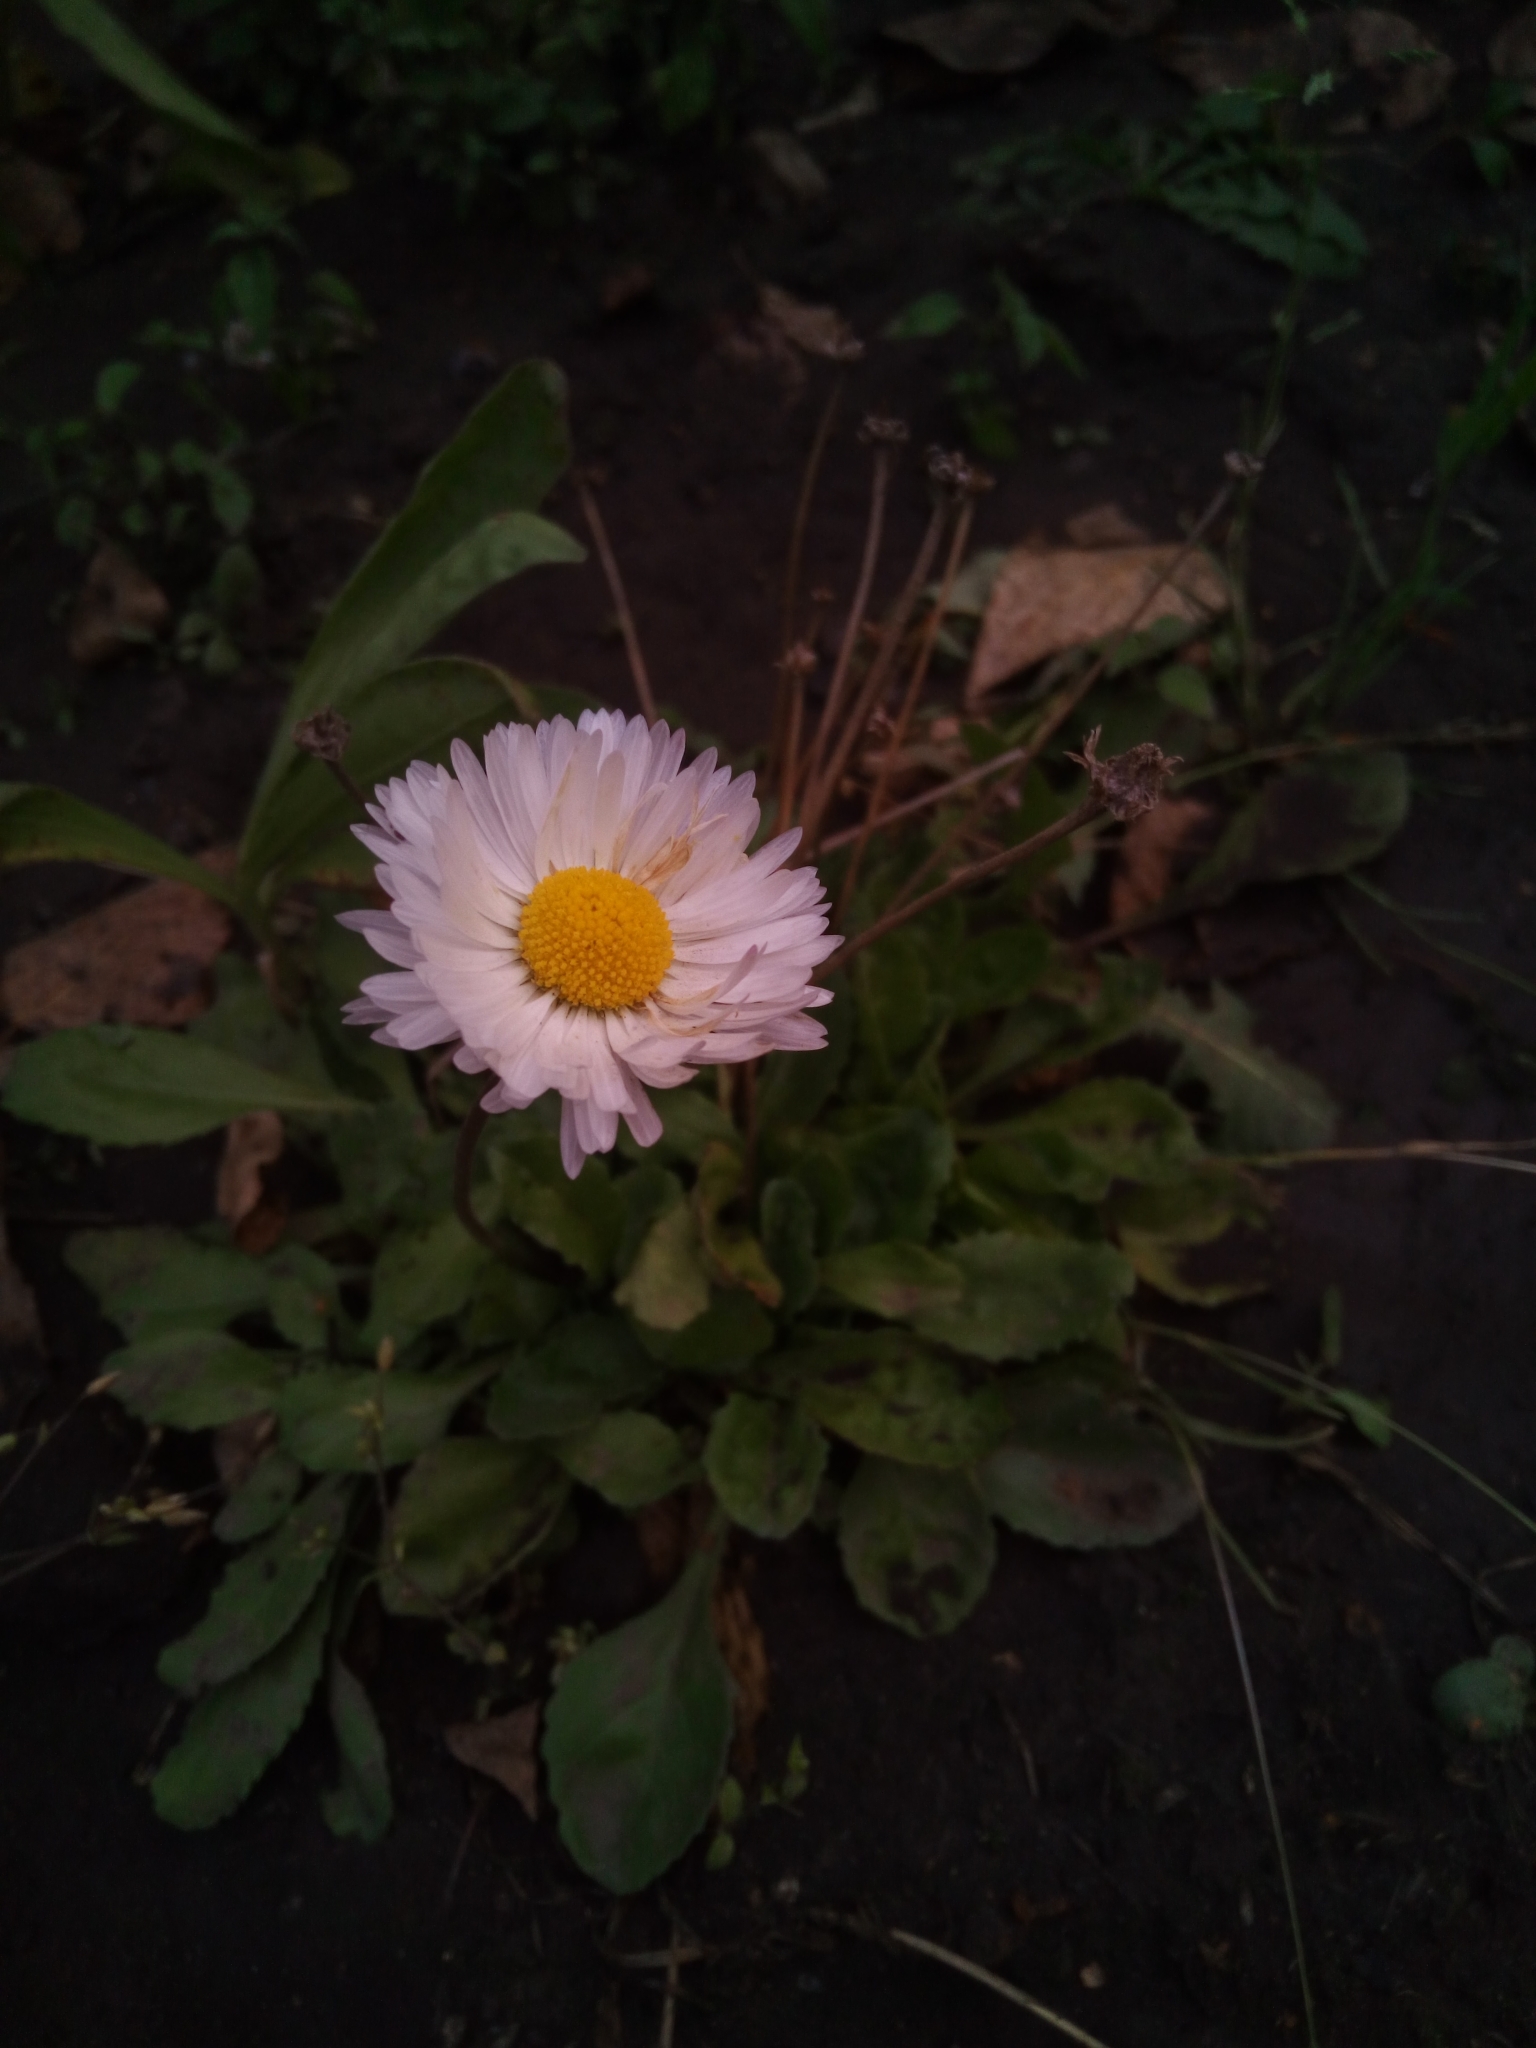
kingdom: Plantae
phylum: Tracheophyta
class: Magnoliopsida
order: Asterales
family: Asteraceae
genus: Bellis
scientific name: Bellis perennis
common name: Lawndaisy
